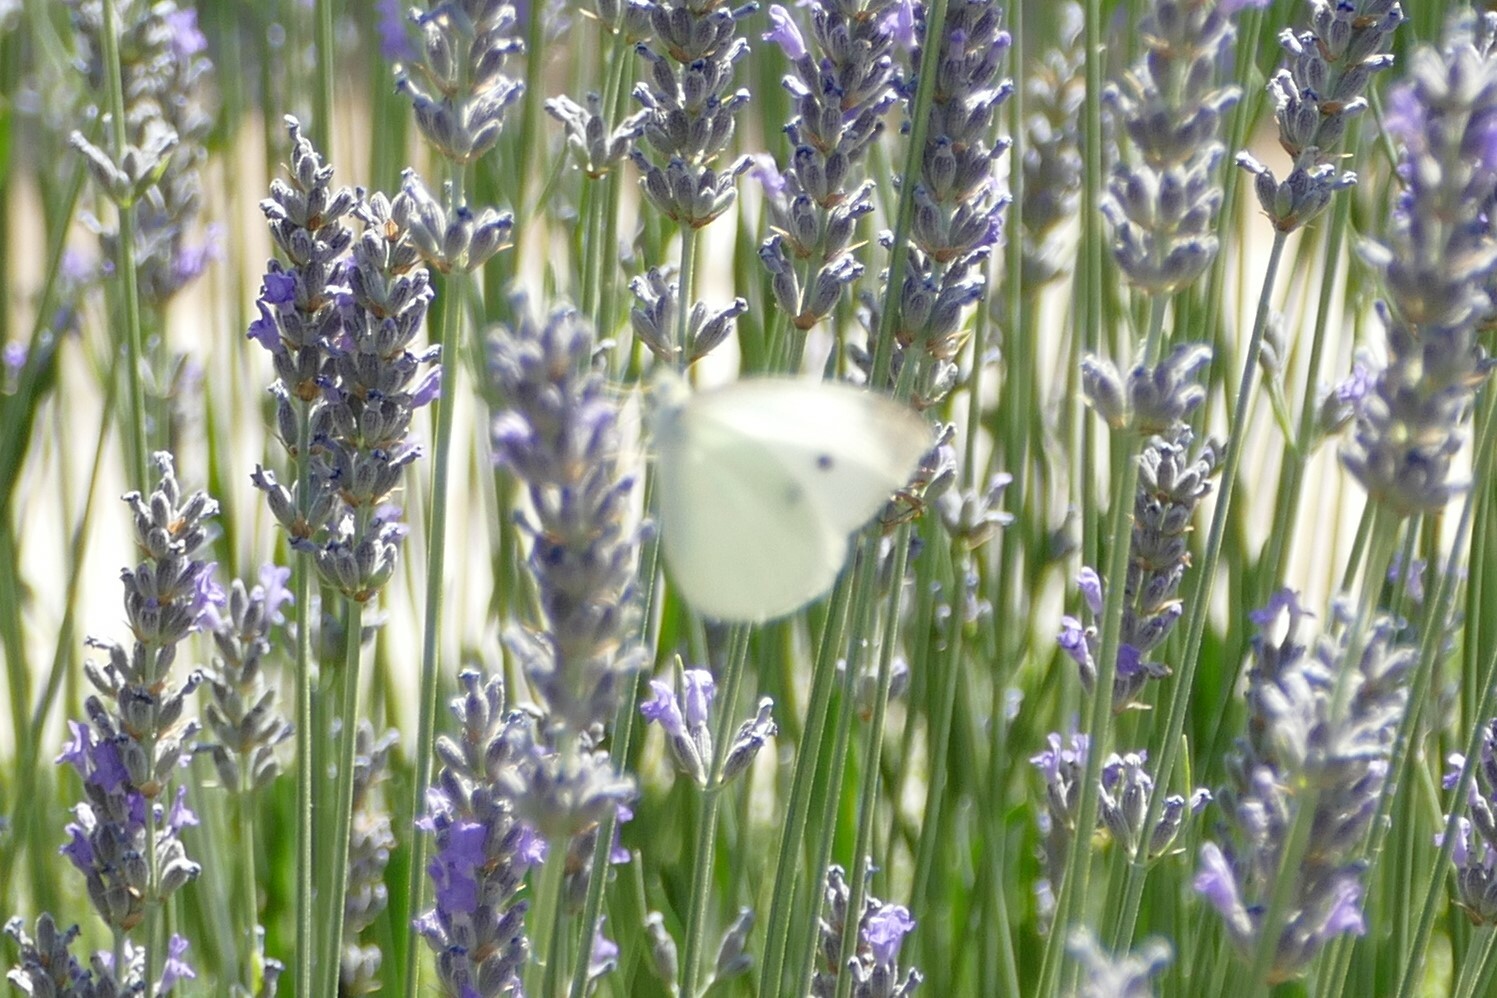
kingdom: Animalia
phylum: Arthropoda
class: Insecta
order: Lepidoptera
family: Pieridae
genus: Pieris
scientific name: Pieris rapae
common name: Small white
